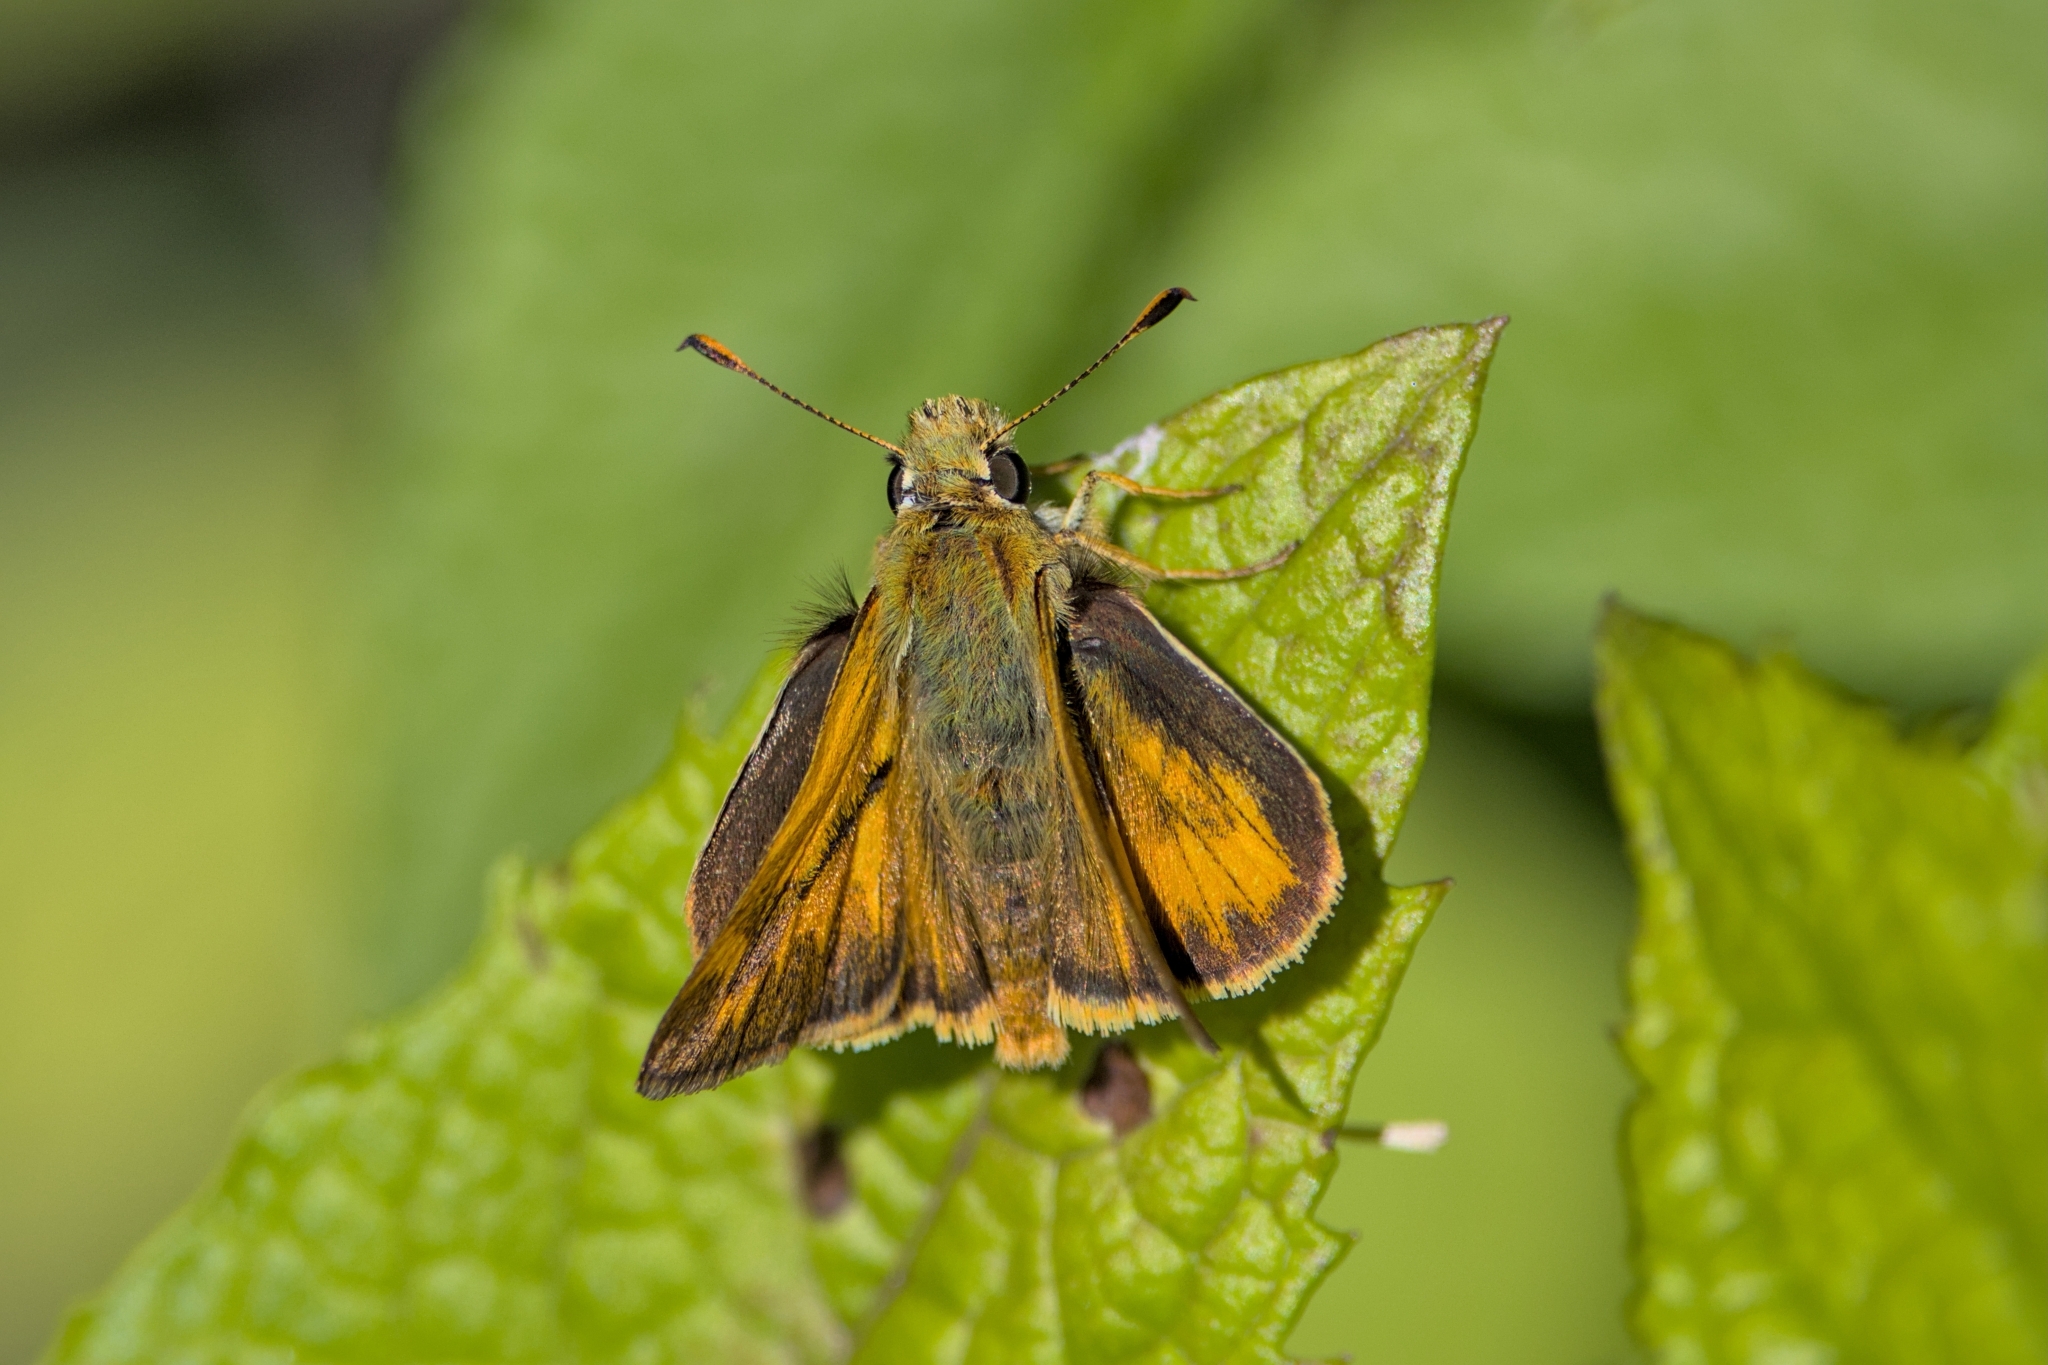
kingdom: Animalia
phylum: Arthropoda
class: Insecta
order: Lepidoptera
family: Hesperiidae
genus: Ochlodes
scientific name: Ochlodes sylvanoides
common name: Woodland skipper
